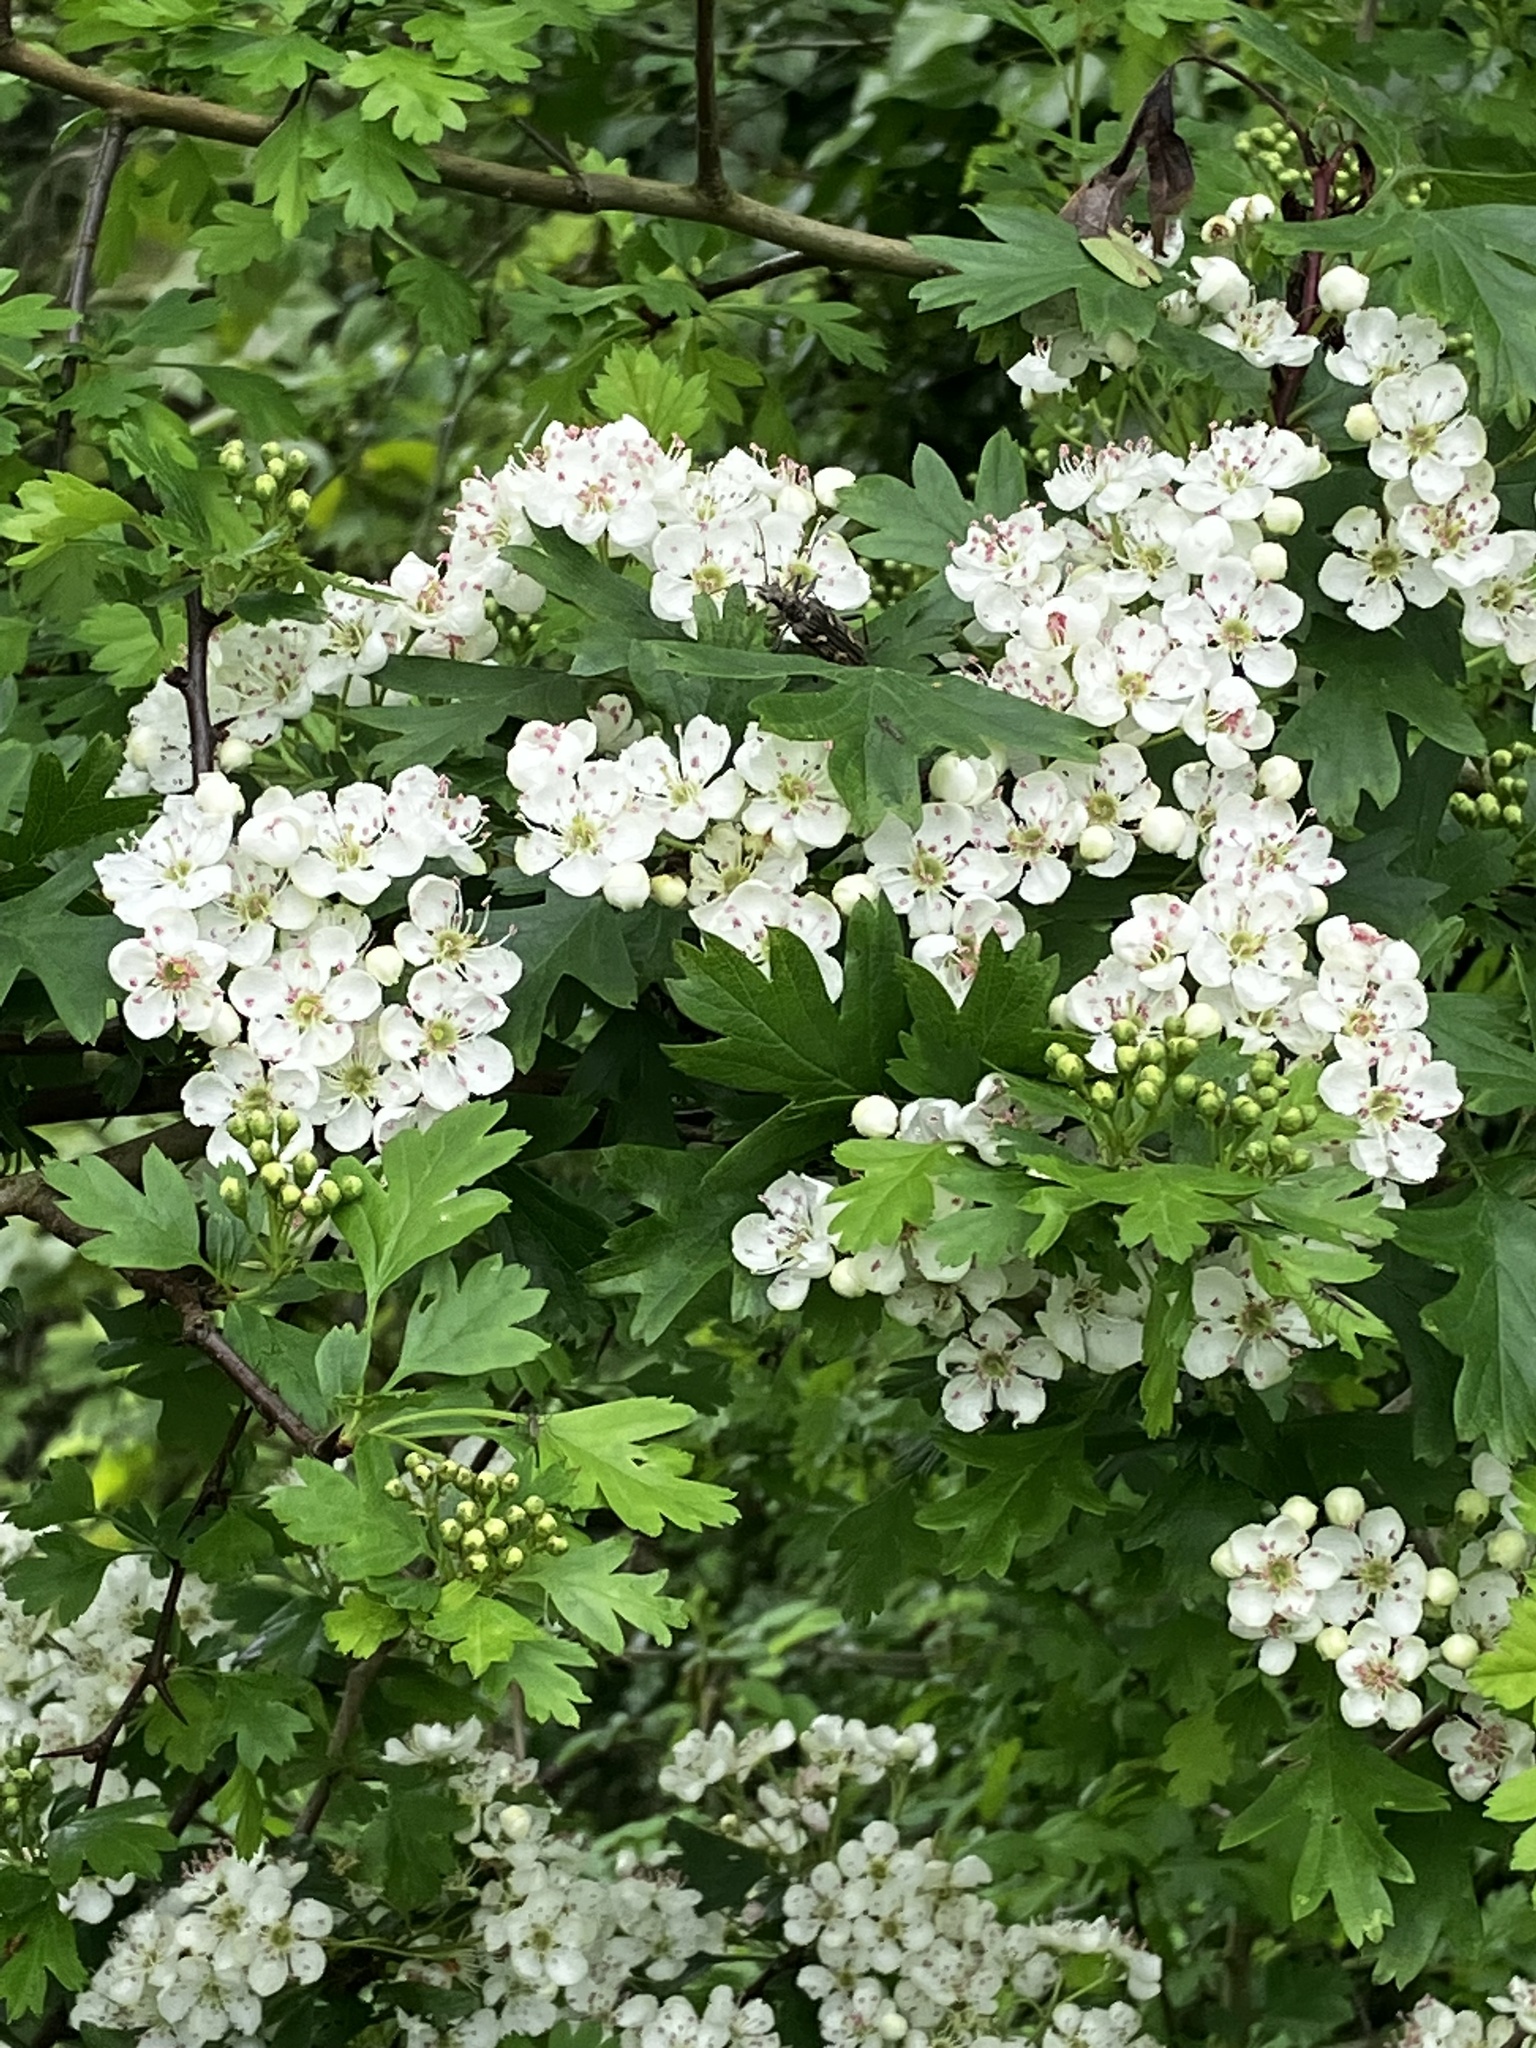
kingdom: Plantae
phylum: Tracheophyta
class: Magnoliopsida
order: Rosales
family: Rosaceae
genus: Crataegus
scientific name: Crataegus monogyna
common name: Hawthorn
